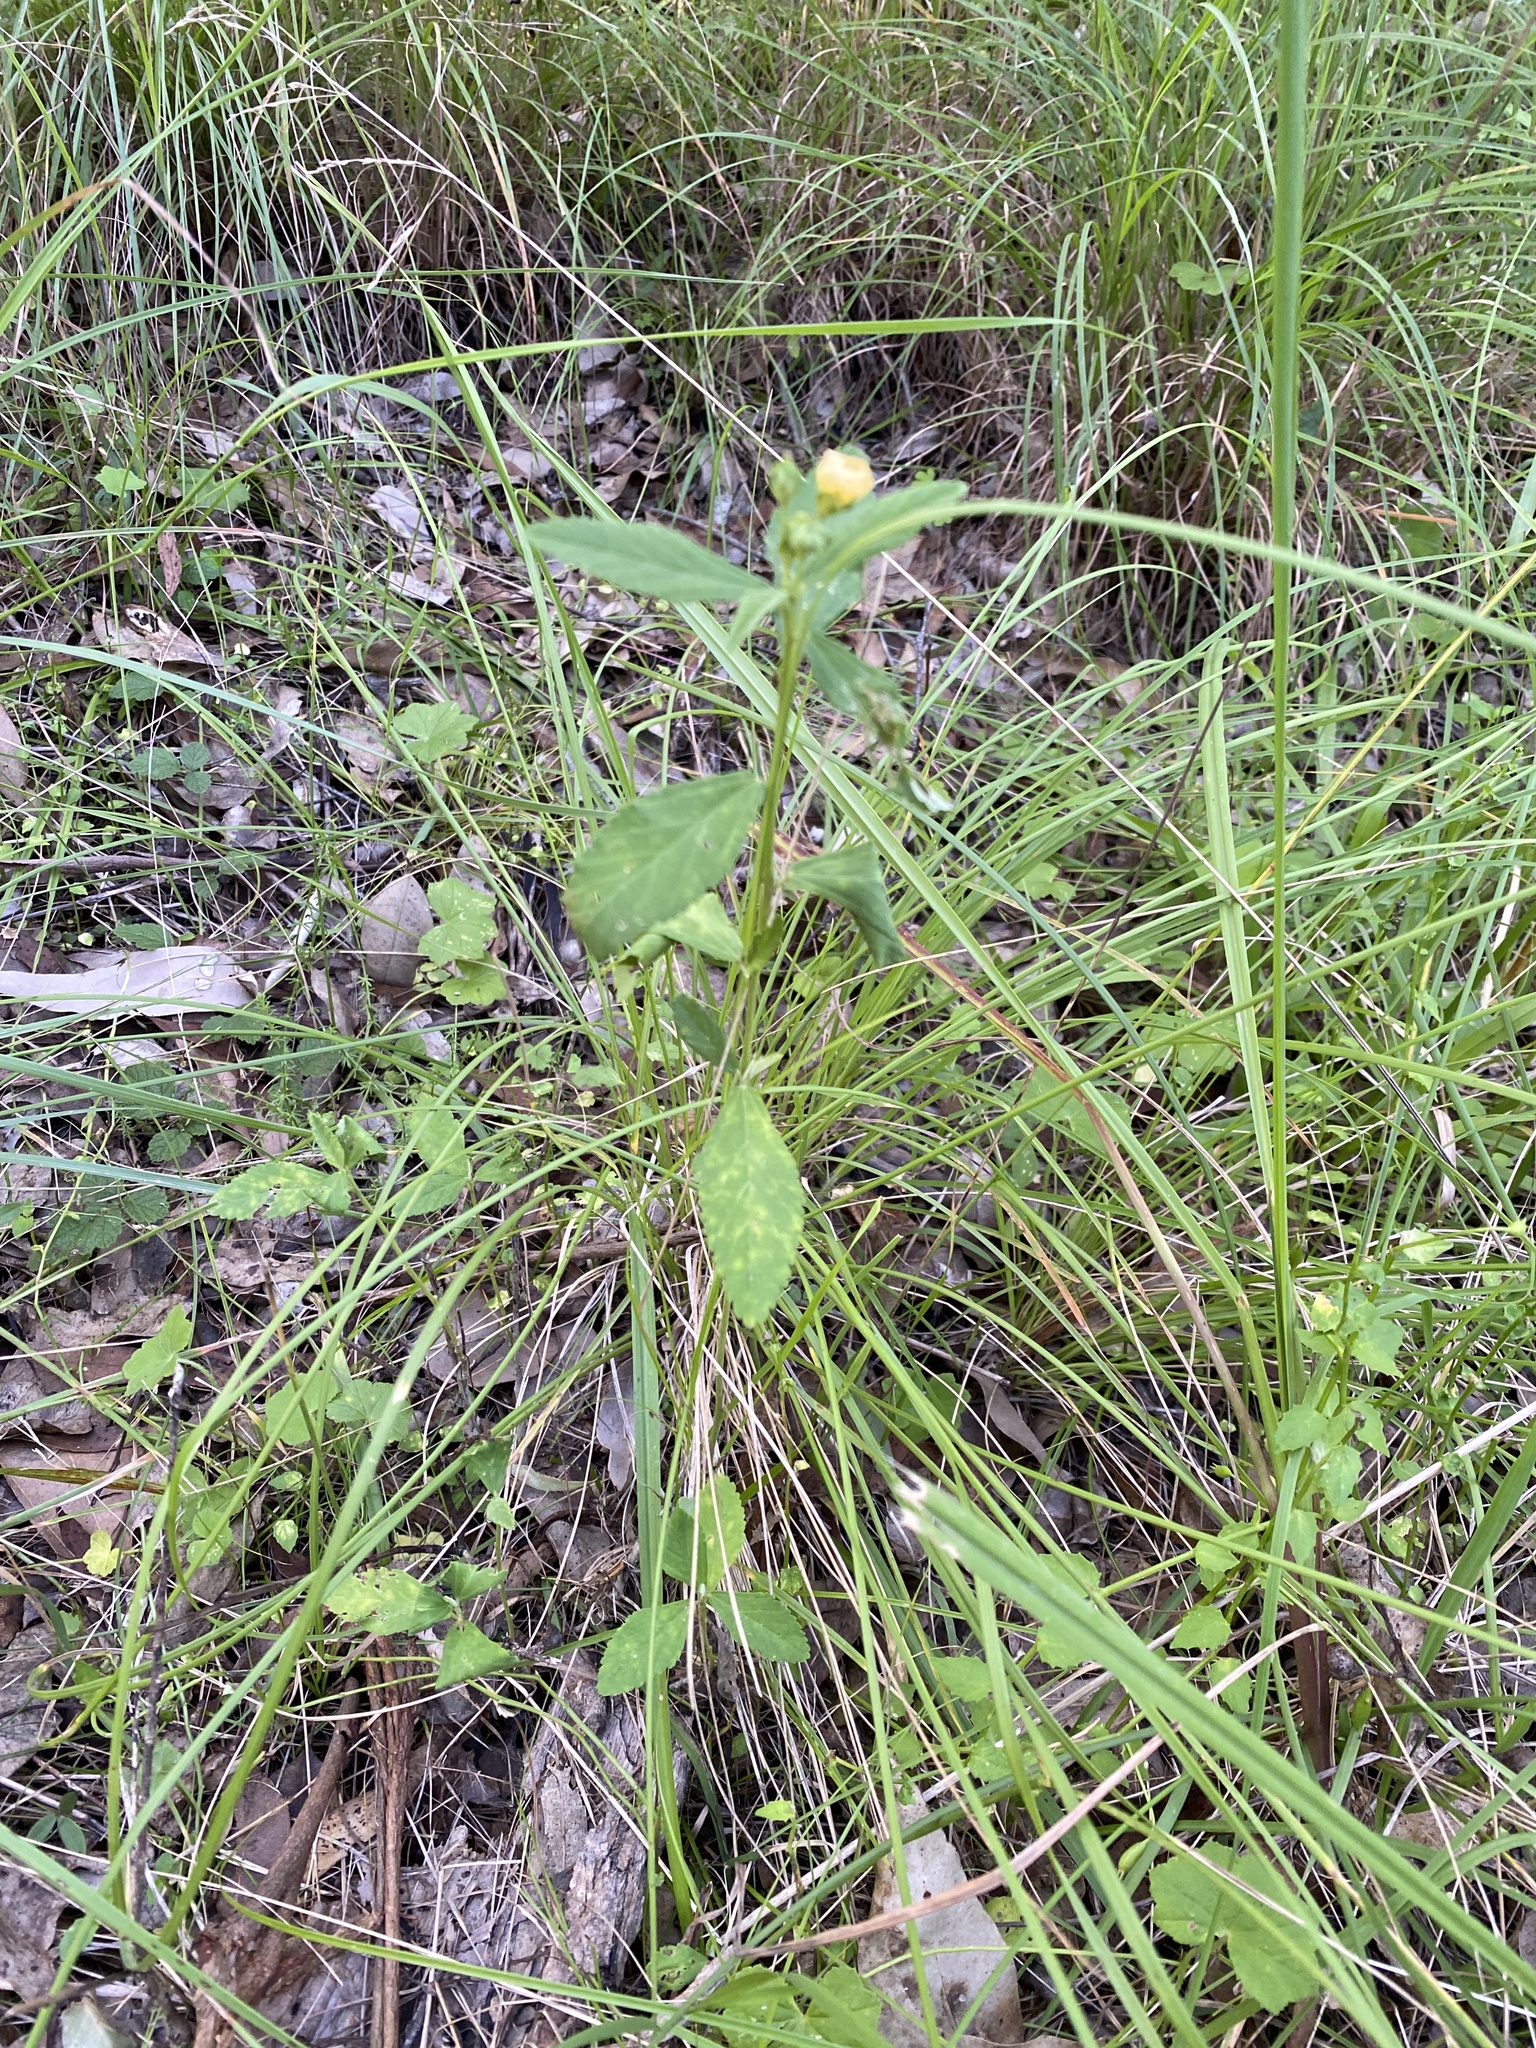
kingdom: Plantae
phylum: Tracheophyta
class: Magnoliopsida
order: Malvales
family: Malvaceae
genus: Sida
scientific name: Sida rhombifolia
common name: Queensland-hemp
